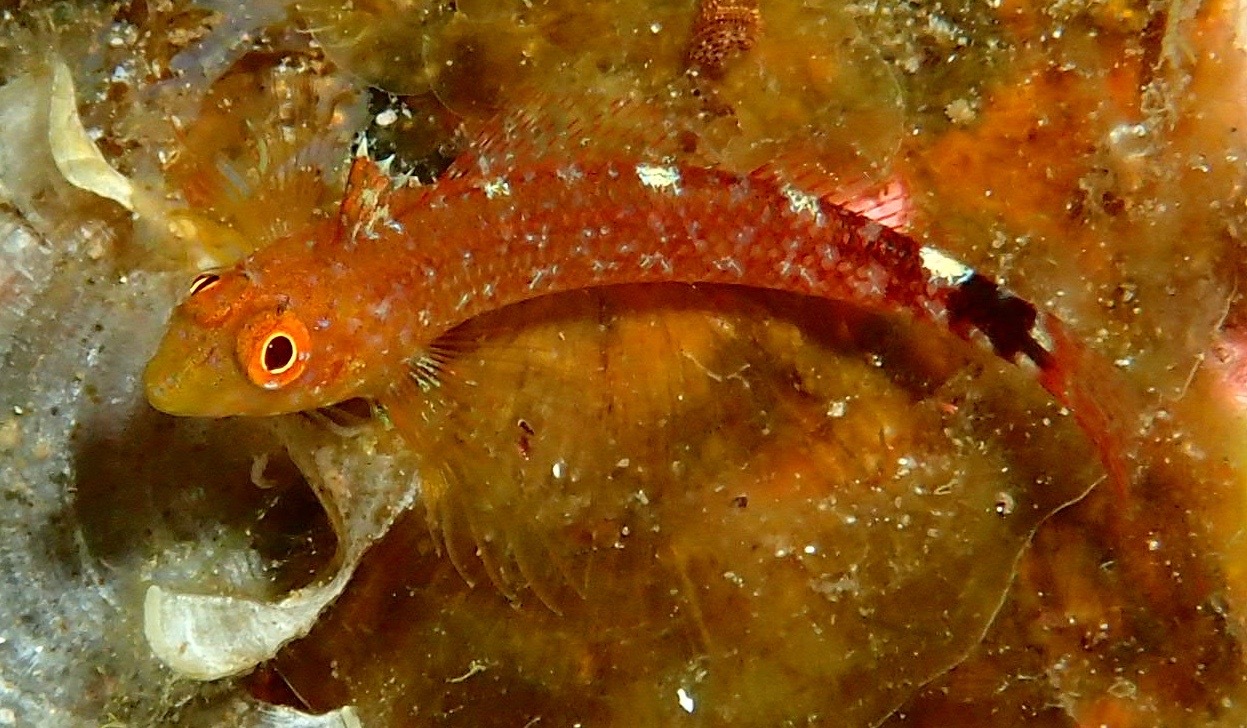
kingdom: Animalia
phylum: Chordata
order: Perciformes
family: Tripterygiidae
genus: Tripterygion
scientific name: Tripterygion delaisi
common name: Black-face blenny
